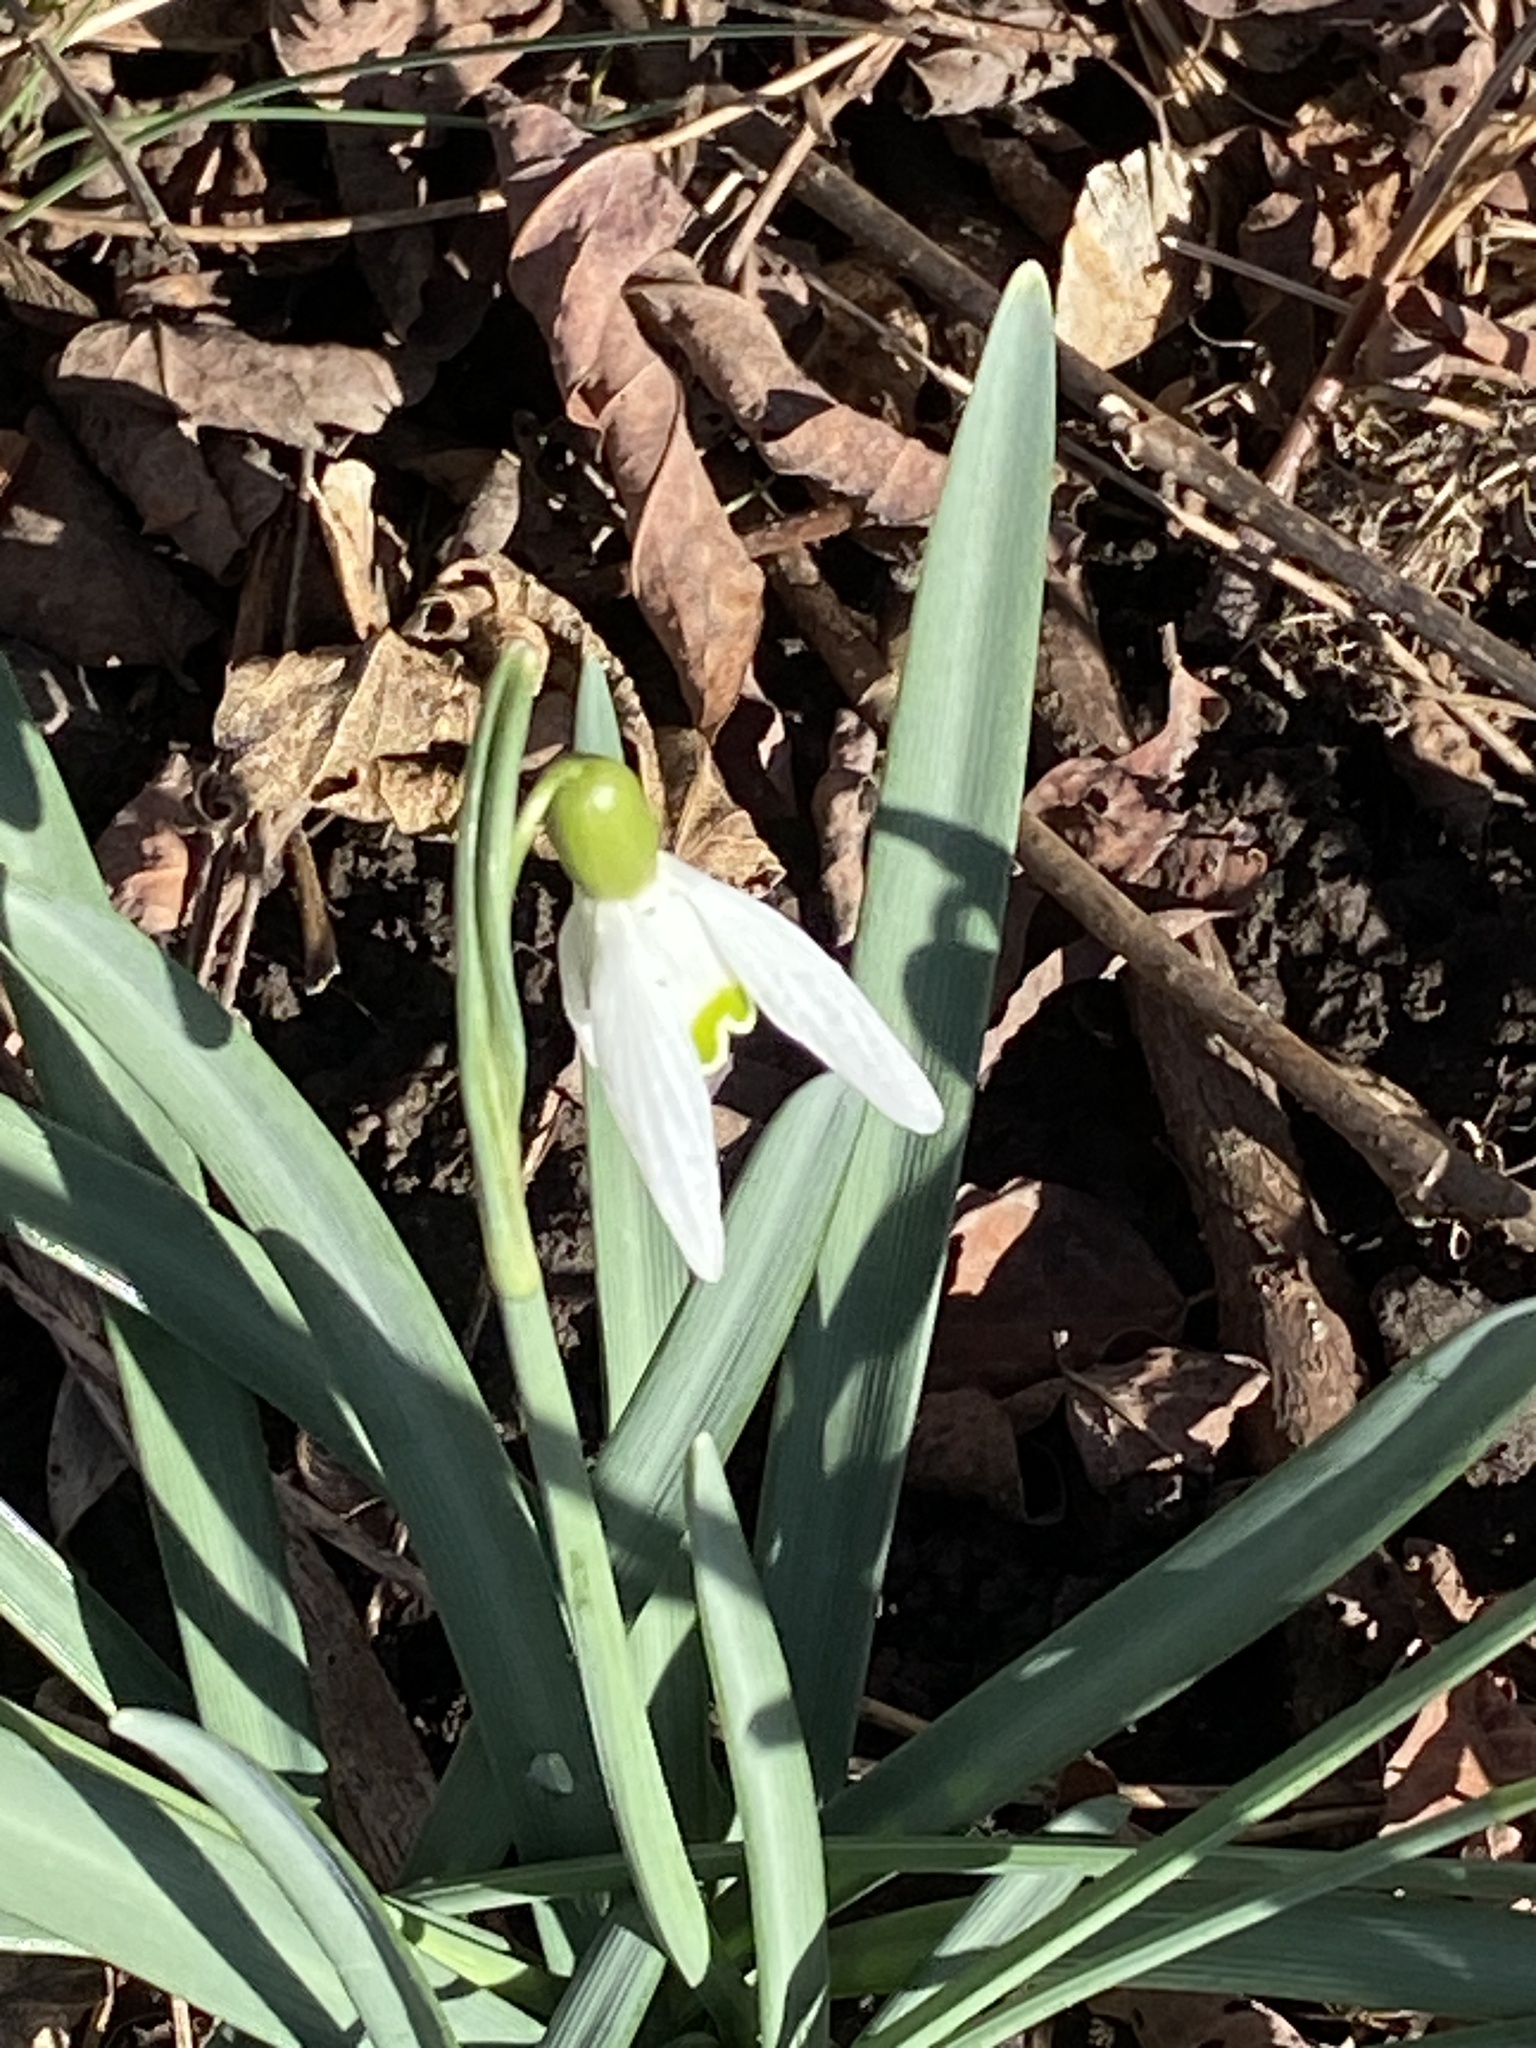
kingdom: Plantae
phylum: Tracheophyta
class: Liliopsida
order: Asparagales
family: Amaryllidaceae
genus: Galanthus
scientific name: Galanthus nivalis
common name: Snowdrop
